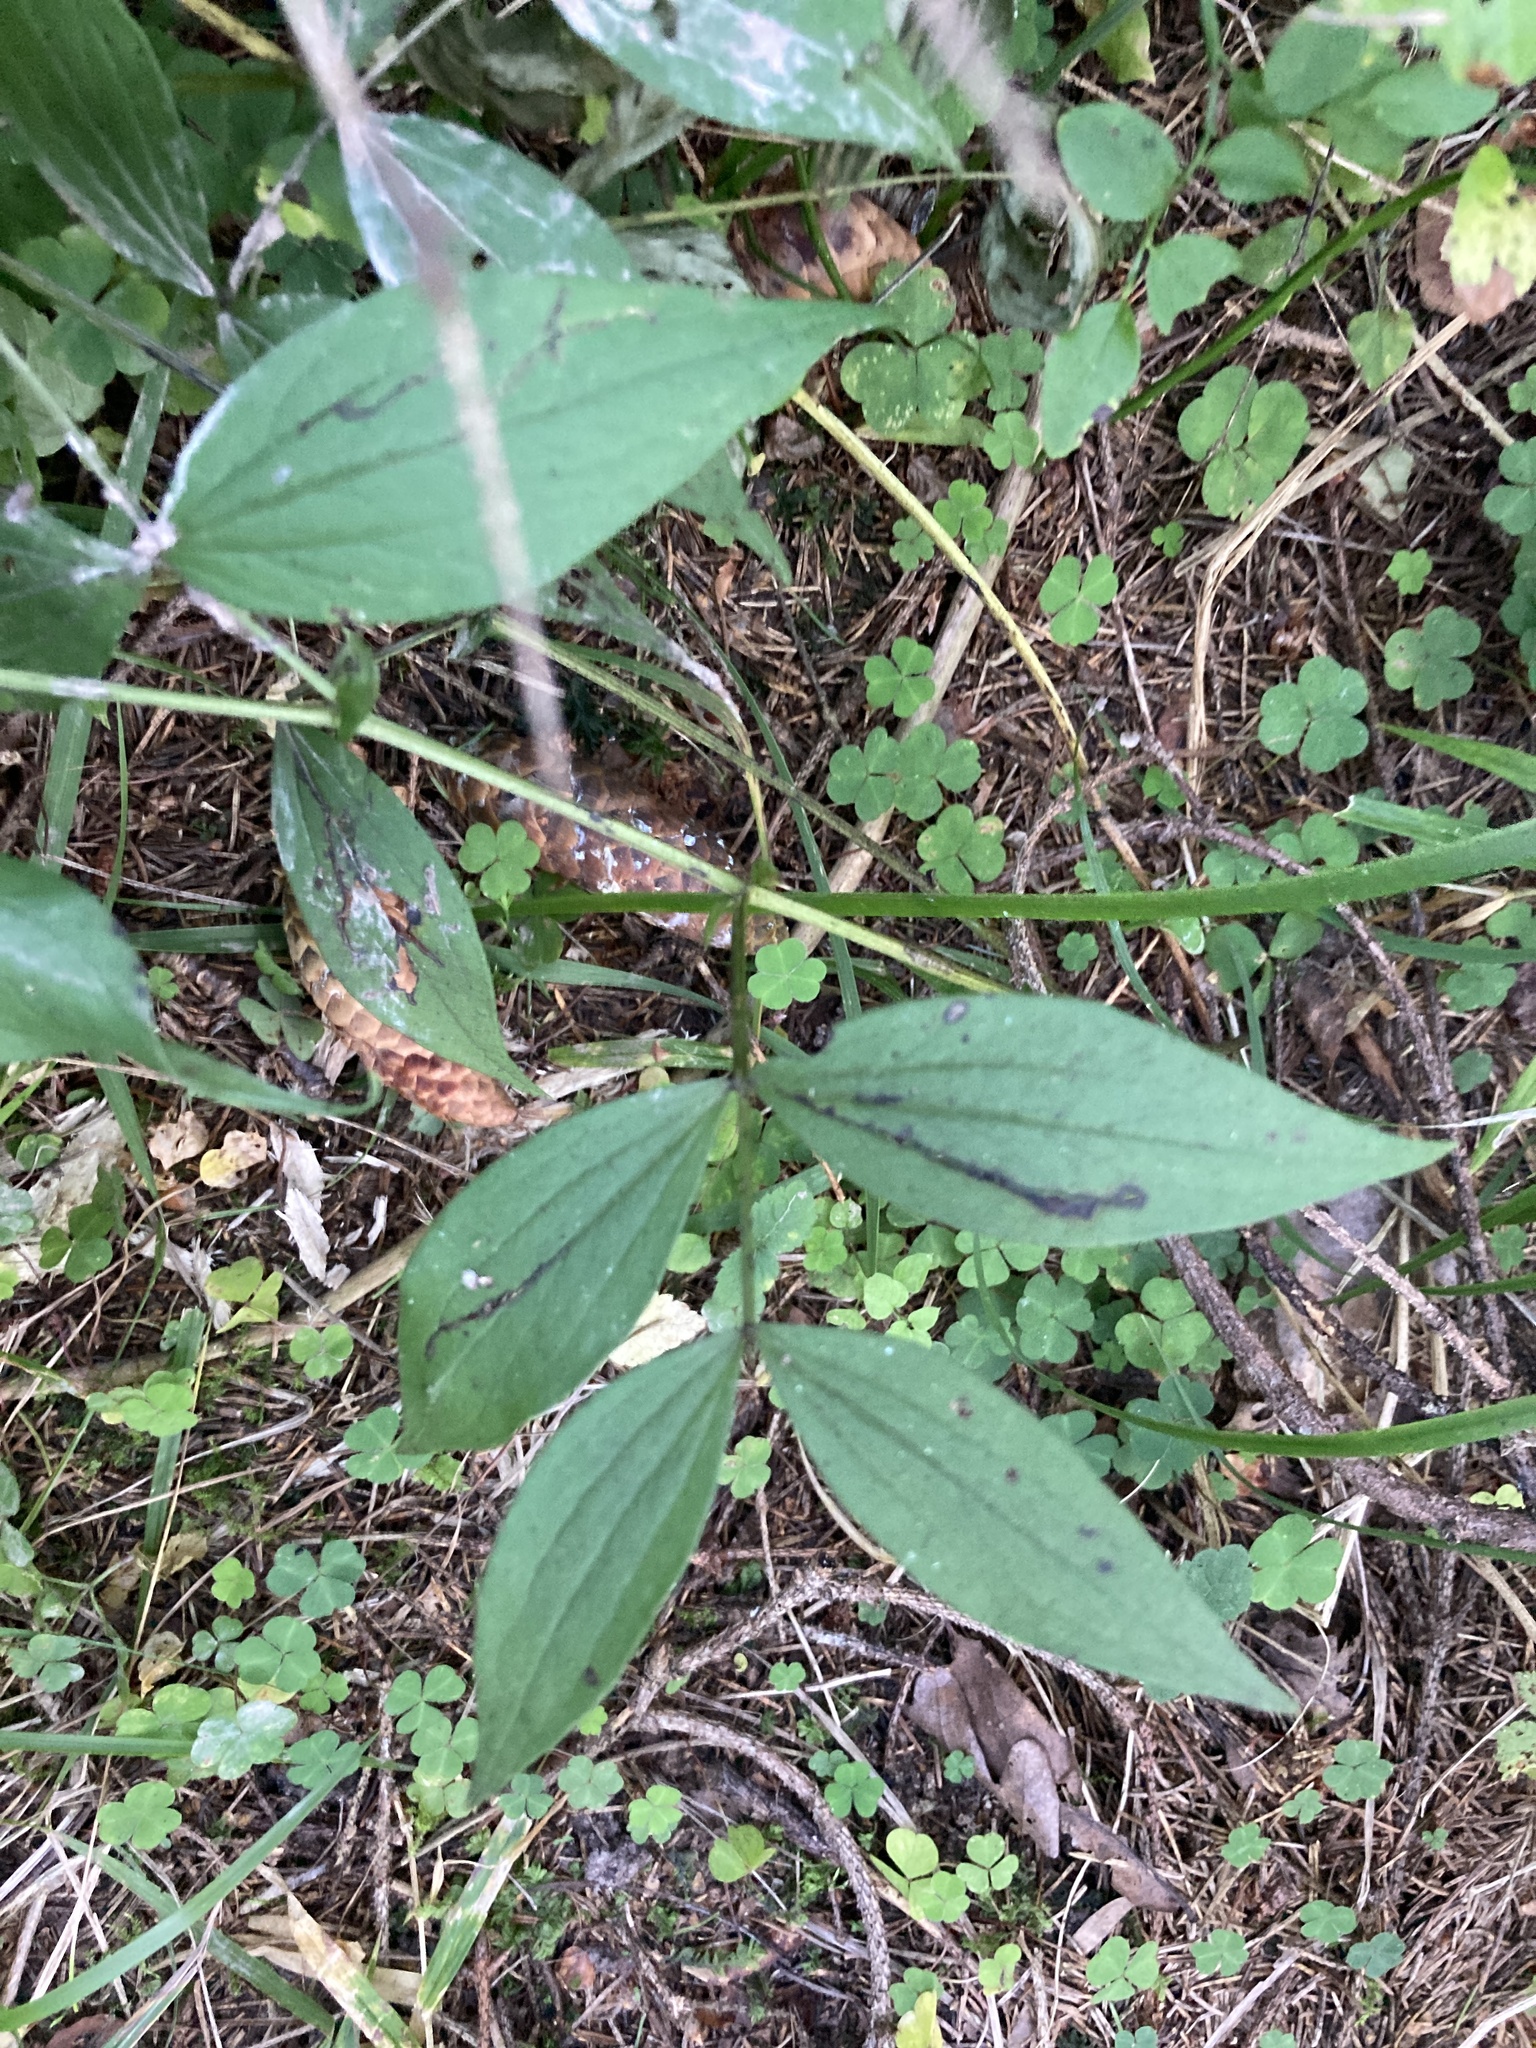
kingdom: Plantae
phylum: Tracheophyta
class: Magnoliopsida
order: Fabales
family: Fabaceae
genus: Lathyrus
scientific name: Lathyrus vernus
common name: Spring pea
